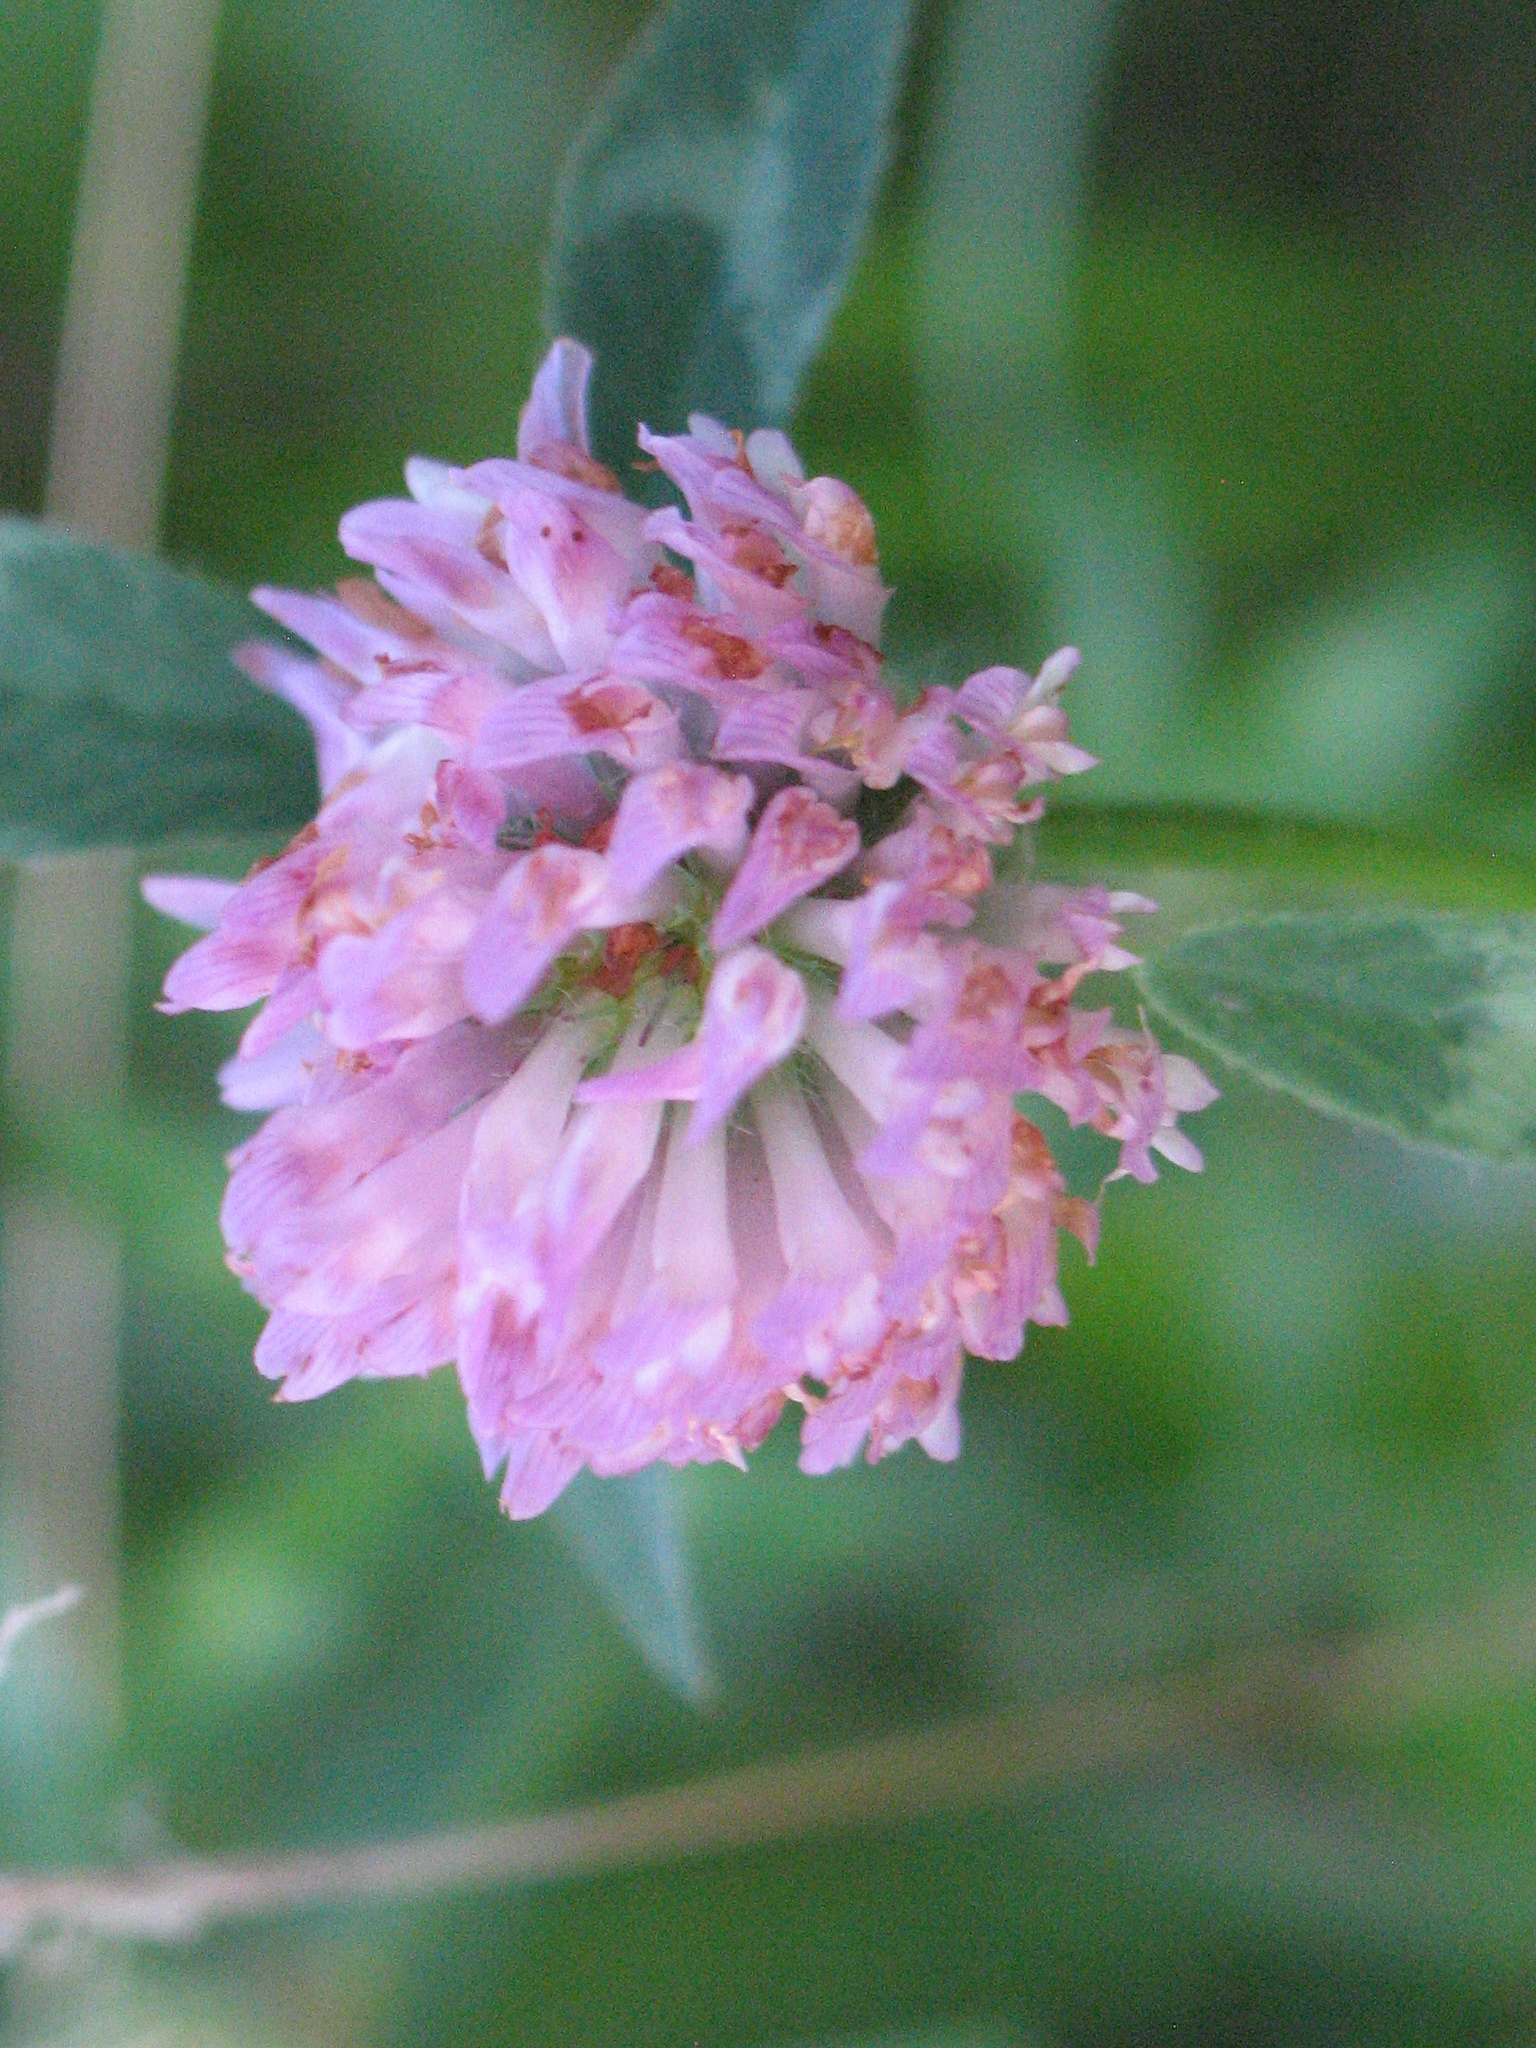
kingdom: Plantae
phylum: Tracheophyta
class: Magnoliopsida
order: Fabales
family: Fabaceae
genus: Trifolium
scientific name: Trifolium pratense
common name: Red clover
